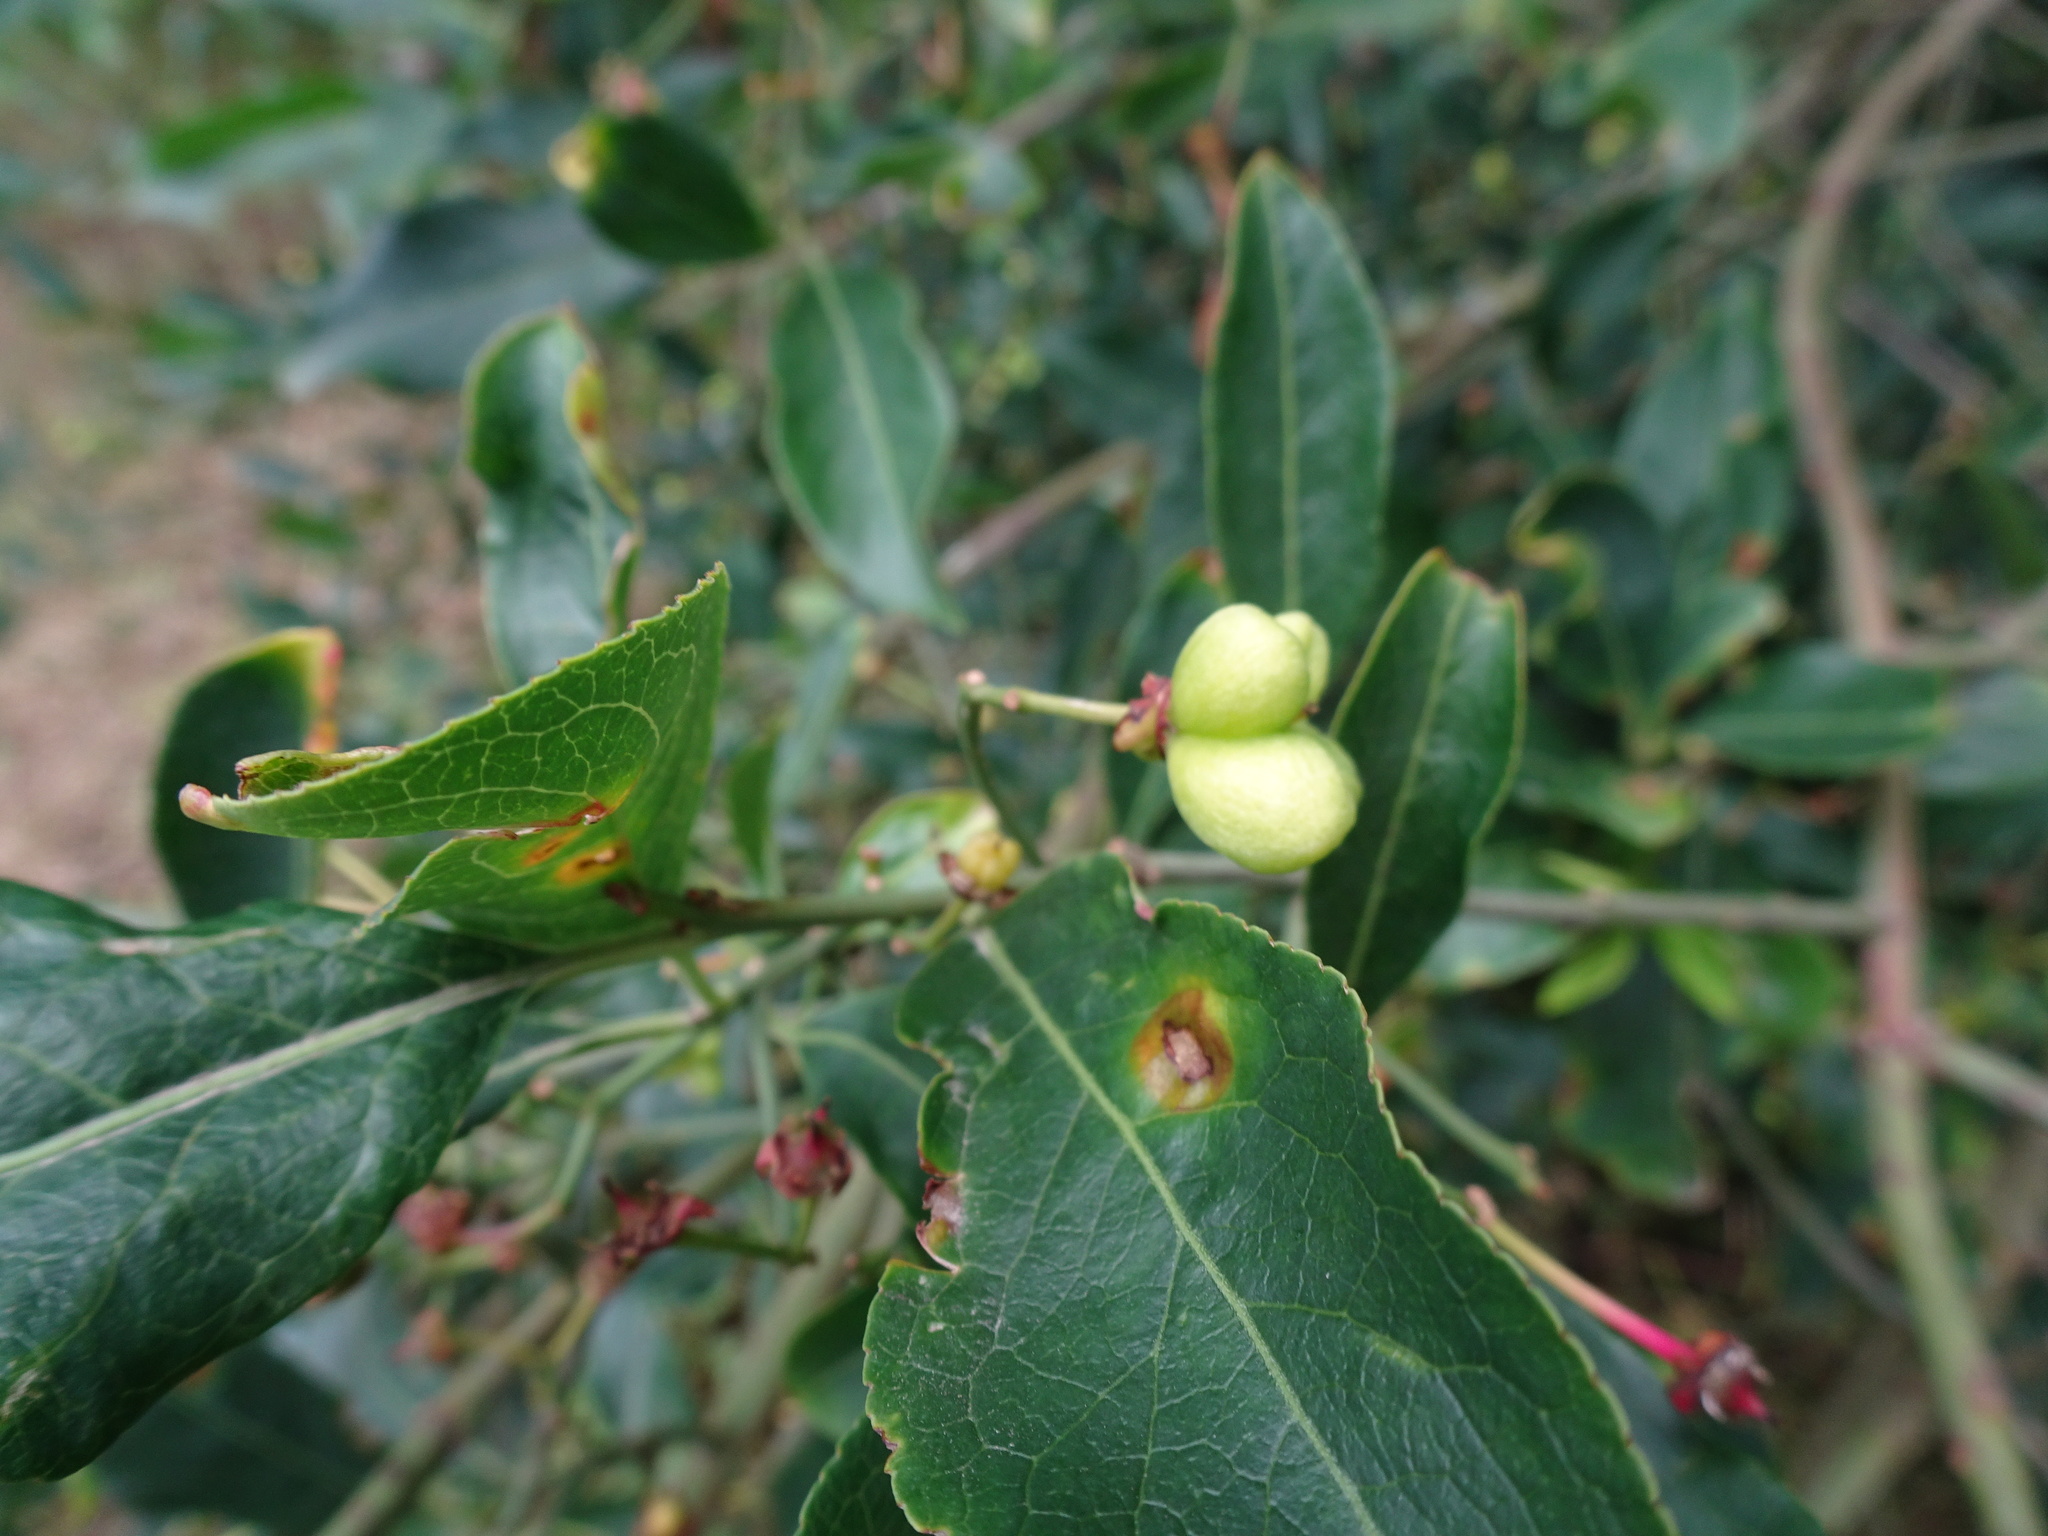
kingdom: Plantae
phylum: Tracheophyta
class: Magnoliopsida
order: Celastrales
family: Celastraceae
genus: Euonymus
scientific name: Euonymus europaeus
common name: Spindle
